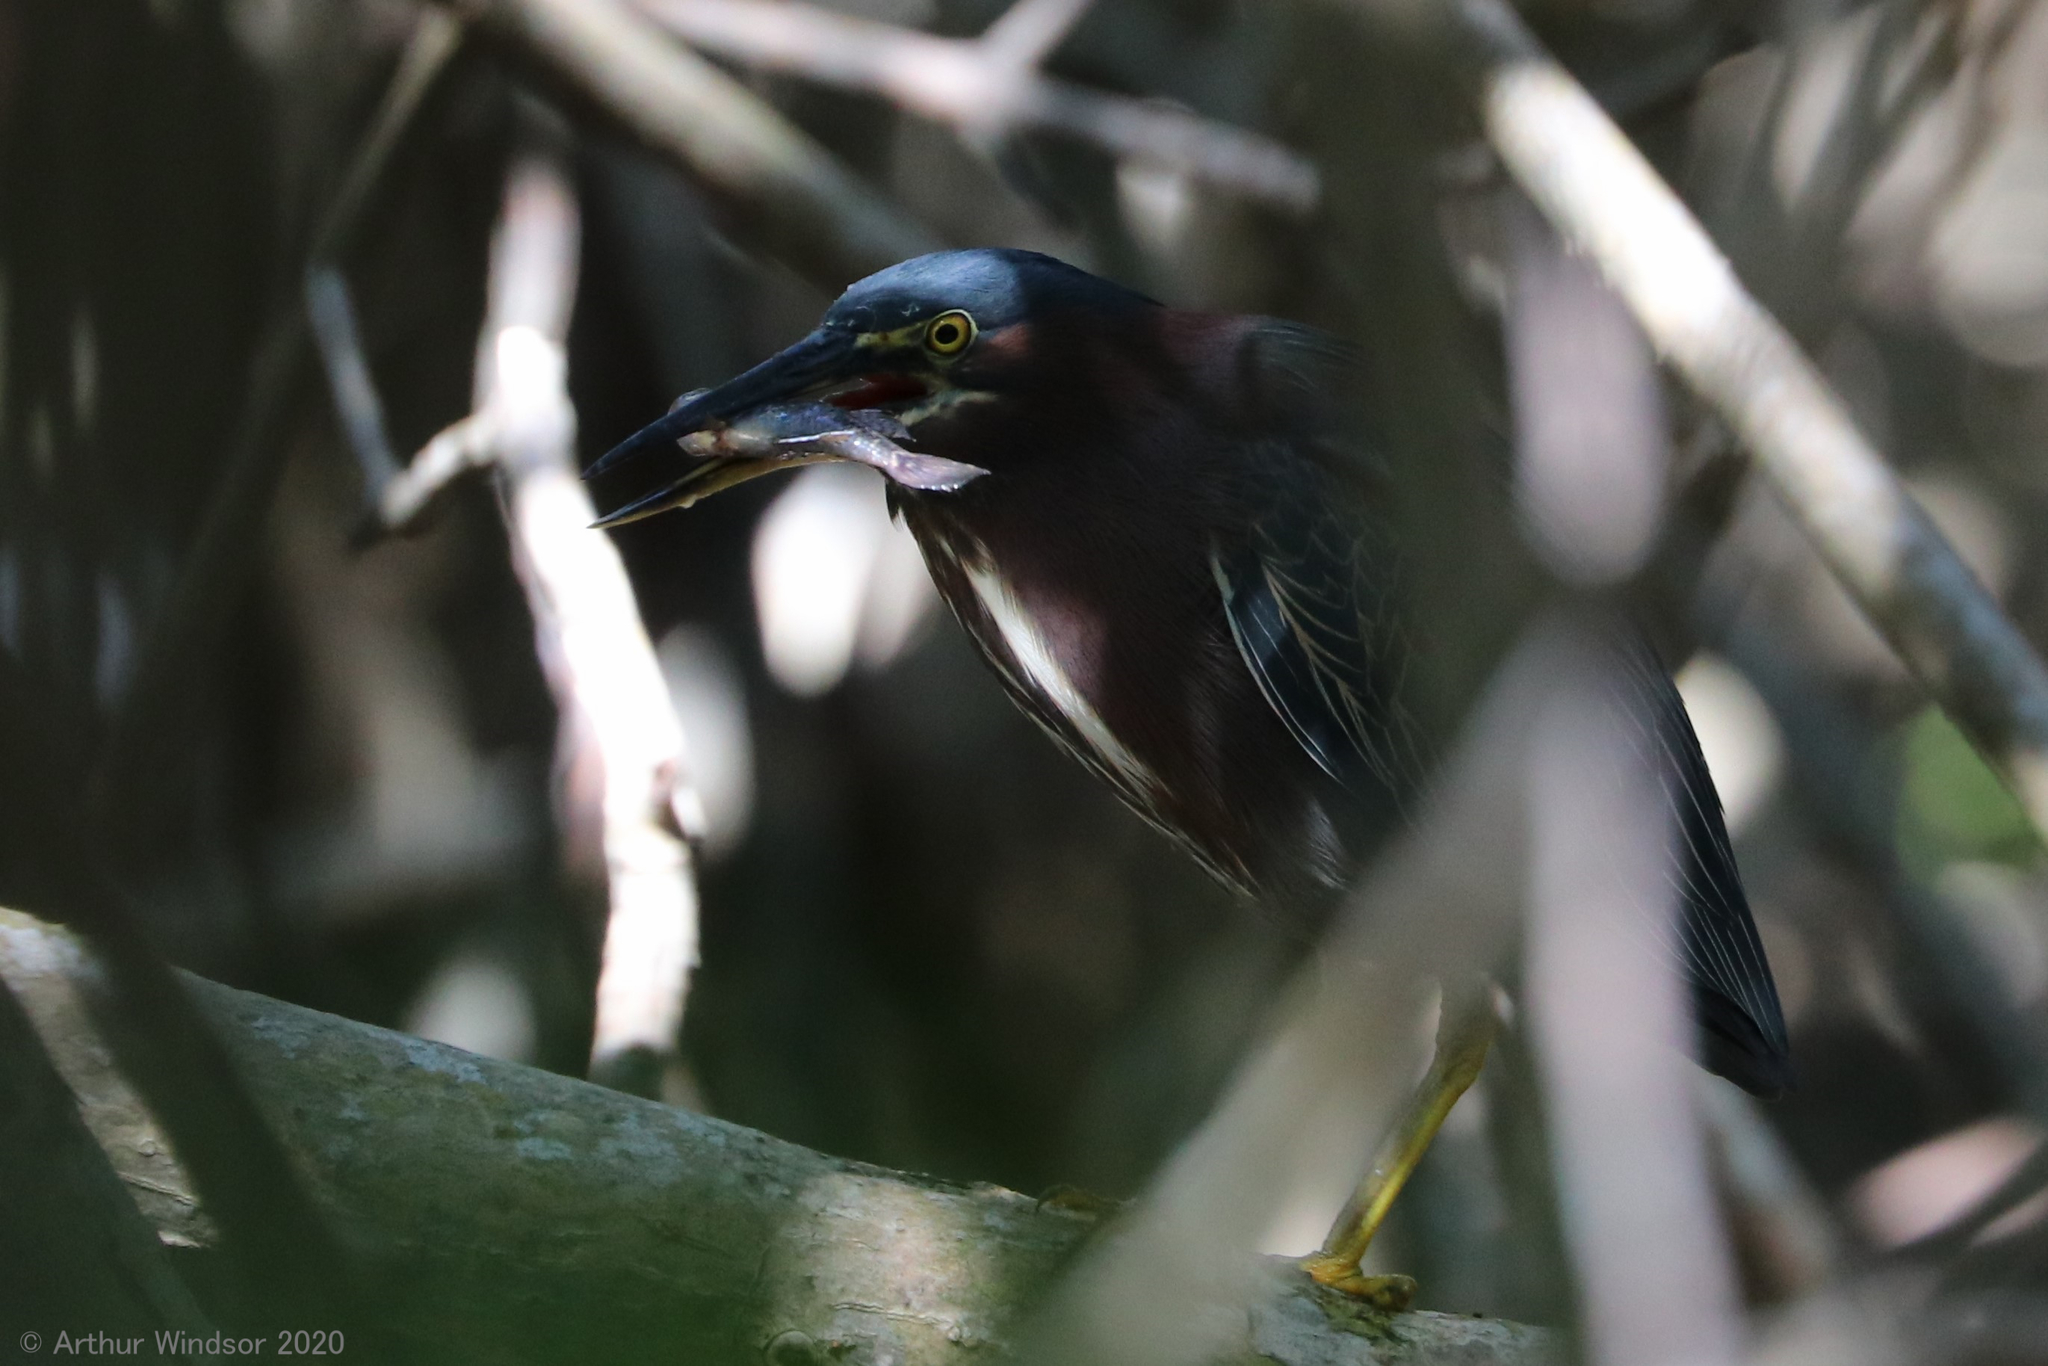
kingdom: Animalia
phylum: Chordata
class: Aves
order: Pelecaniformes
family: Ardeidae
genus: Butorides
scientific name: Butorides virescens
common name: Green heron
